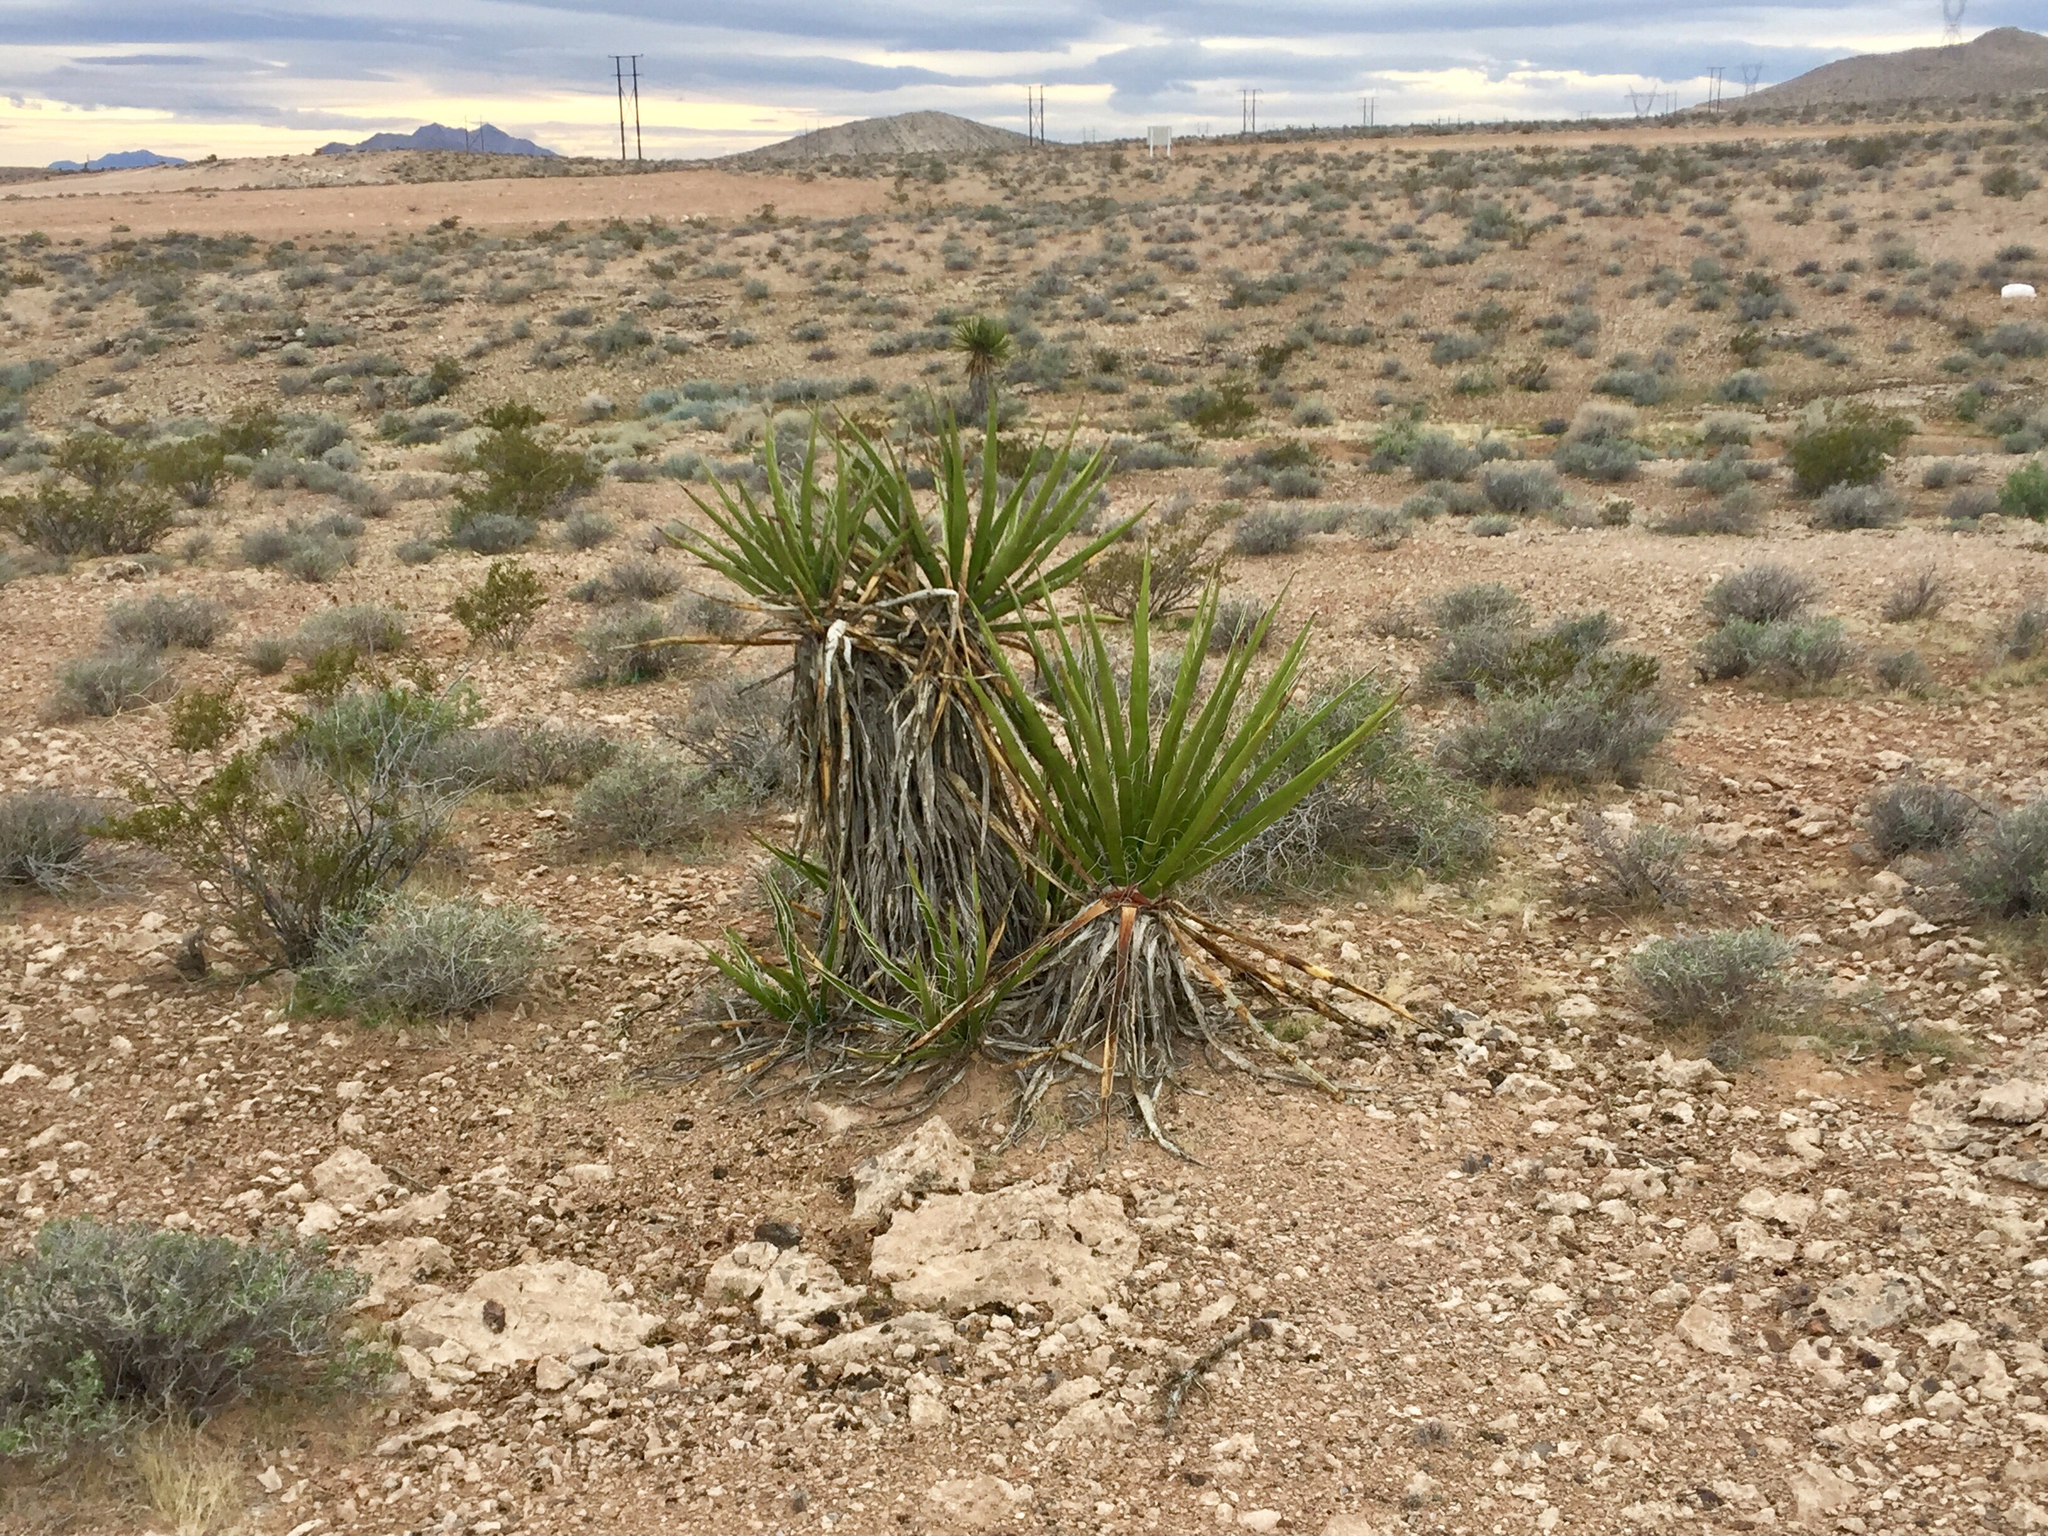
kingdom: Plantae
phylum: Tracheophyta
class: Liliopsida
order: Asparagales
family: Asparagaceae
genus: Yucca
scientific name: Yucca schidigera
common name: Mojave yucca
